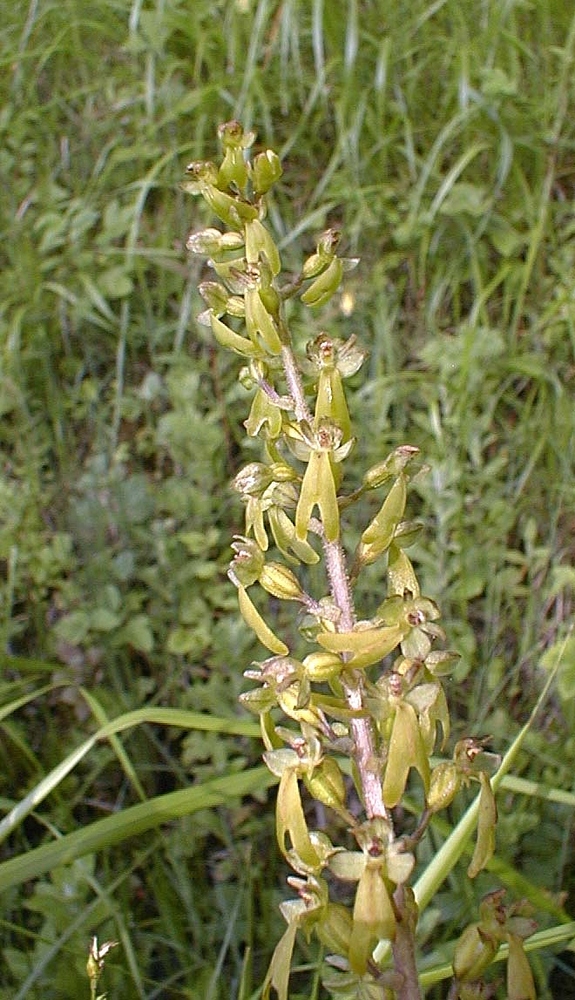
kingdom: Plantae
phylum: Tracheophyta
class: Liliopsida
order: Asparagales
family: Orchidaceae
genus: Neottia
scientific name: Neottia ovata
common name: Common twayblade
